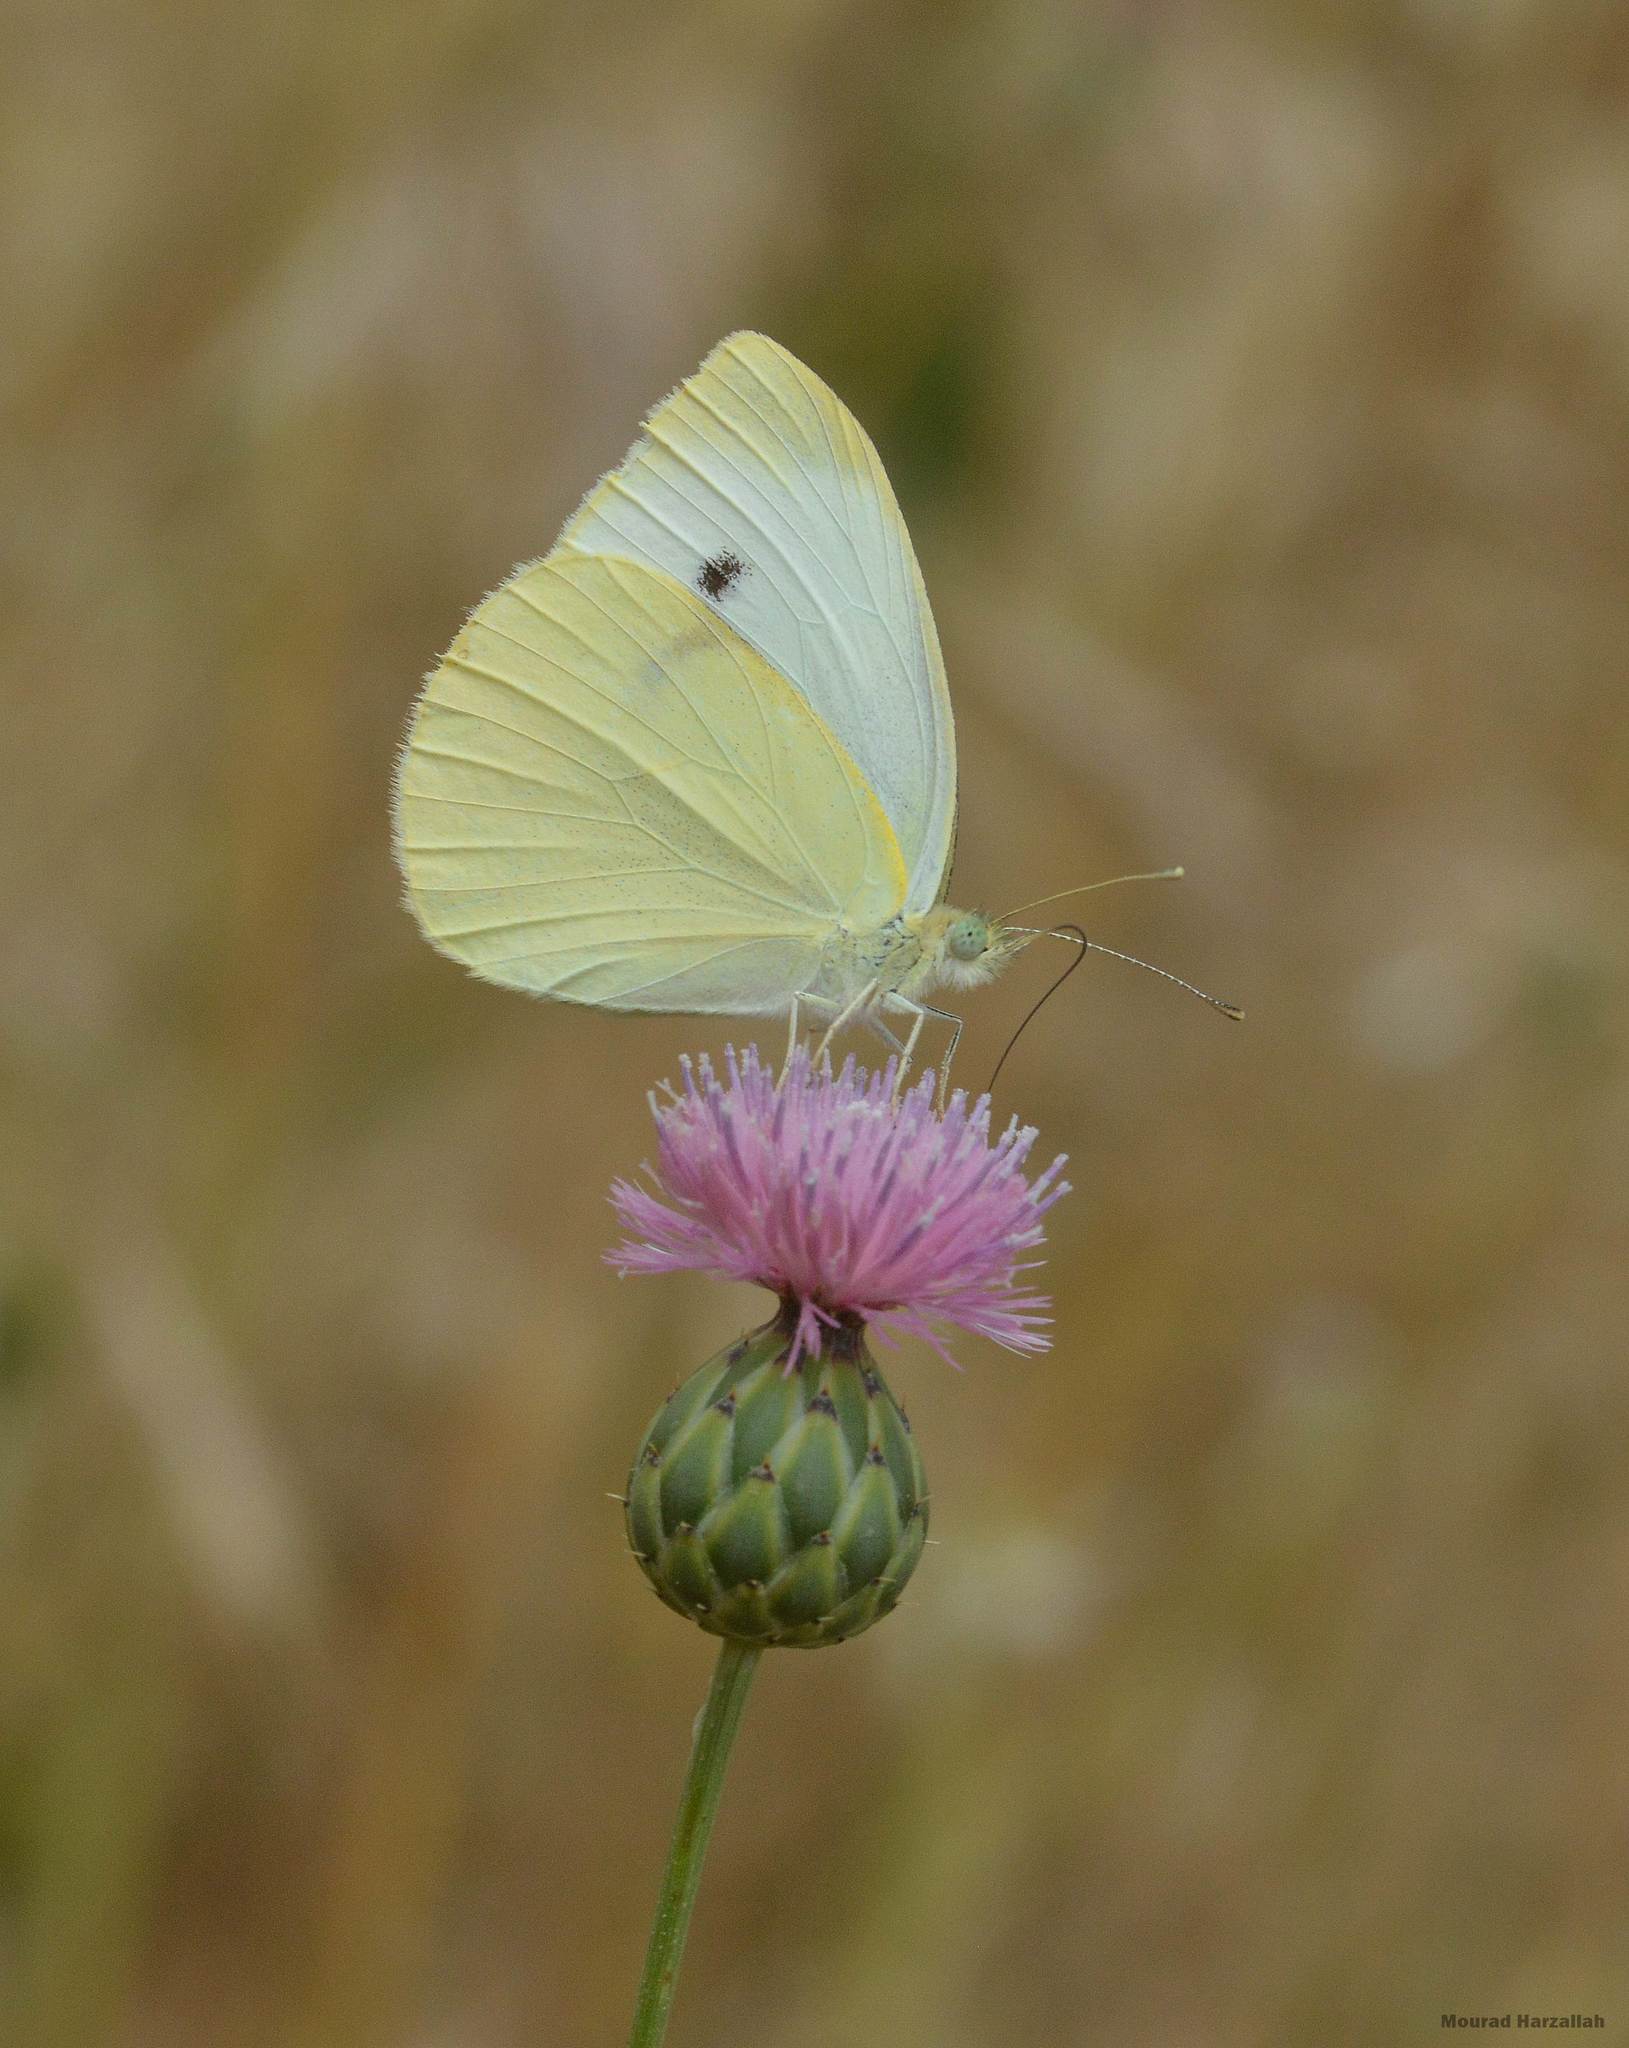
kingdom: Animalia
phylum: Arthropoda
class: Insecta
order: Lepidoptera
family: Pieridae
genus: Pieris
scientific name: Pieris rapae
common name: Small white
